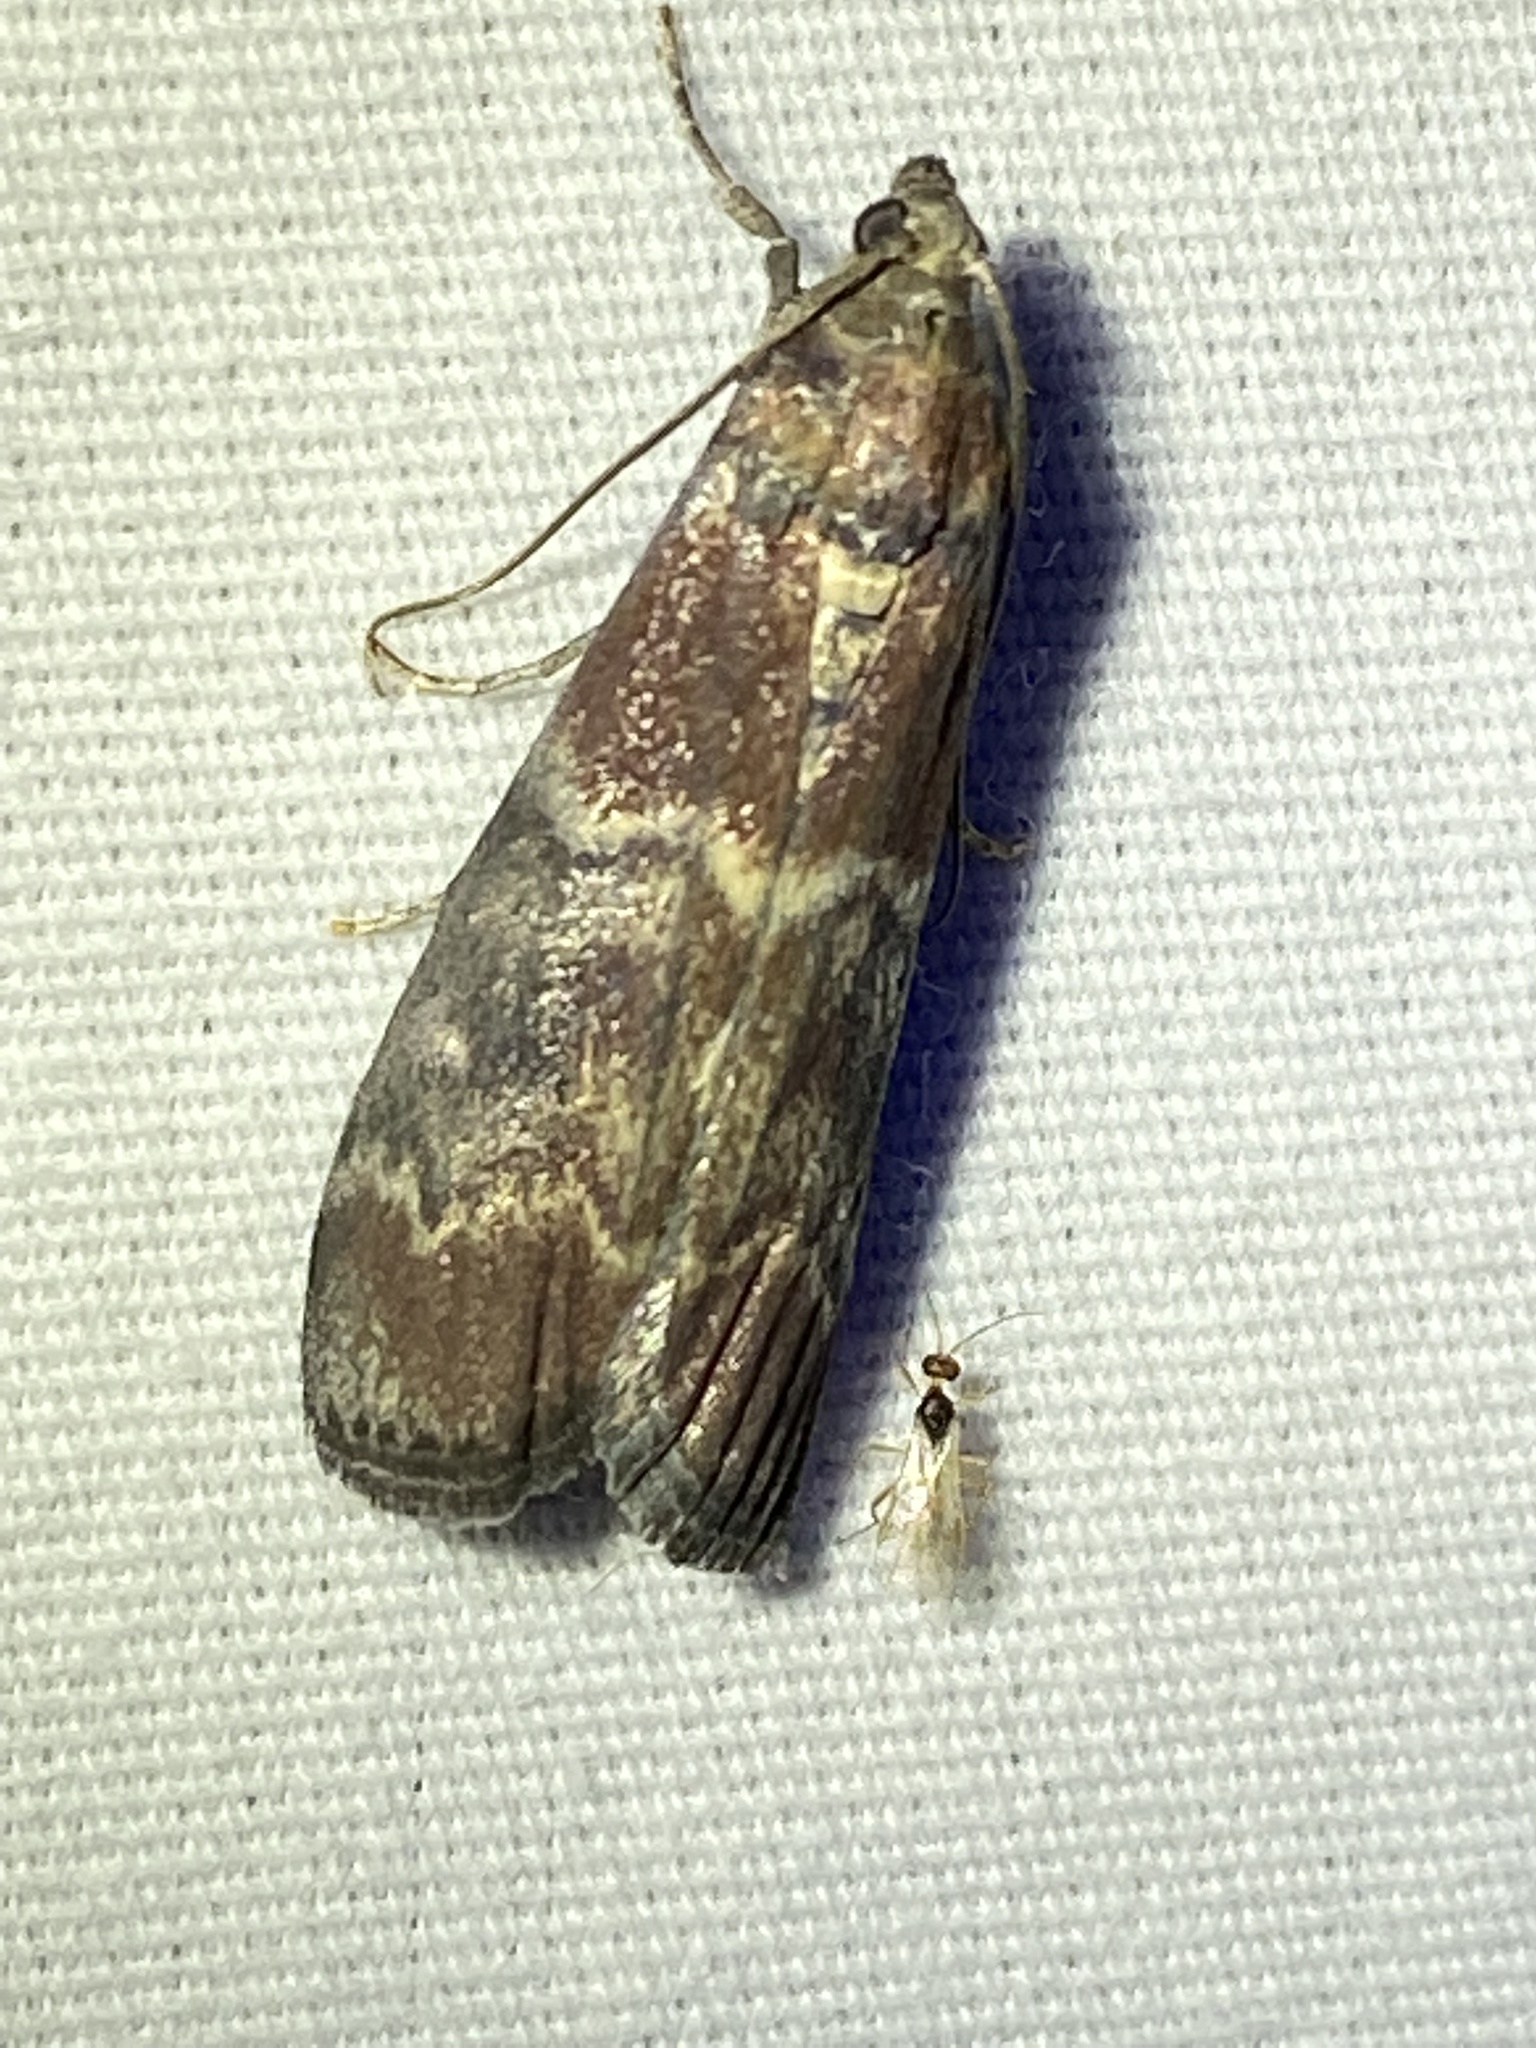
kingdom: Animalia
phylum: Arthropoda
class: Insecta
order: Lepidoptera
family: Pyralidae
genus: Euzophera
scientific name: Euzophera ostricolorella
